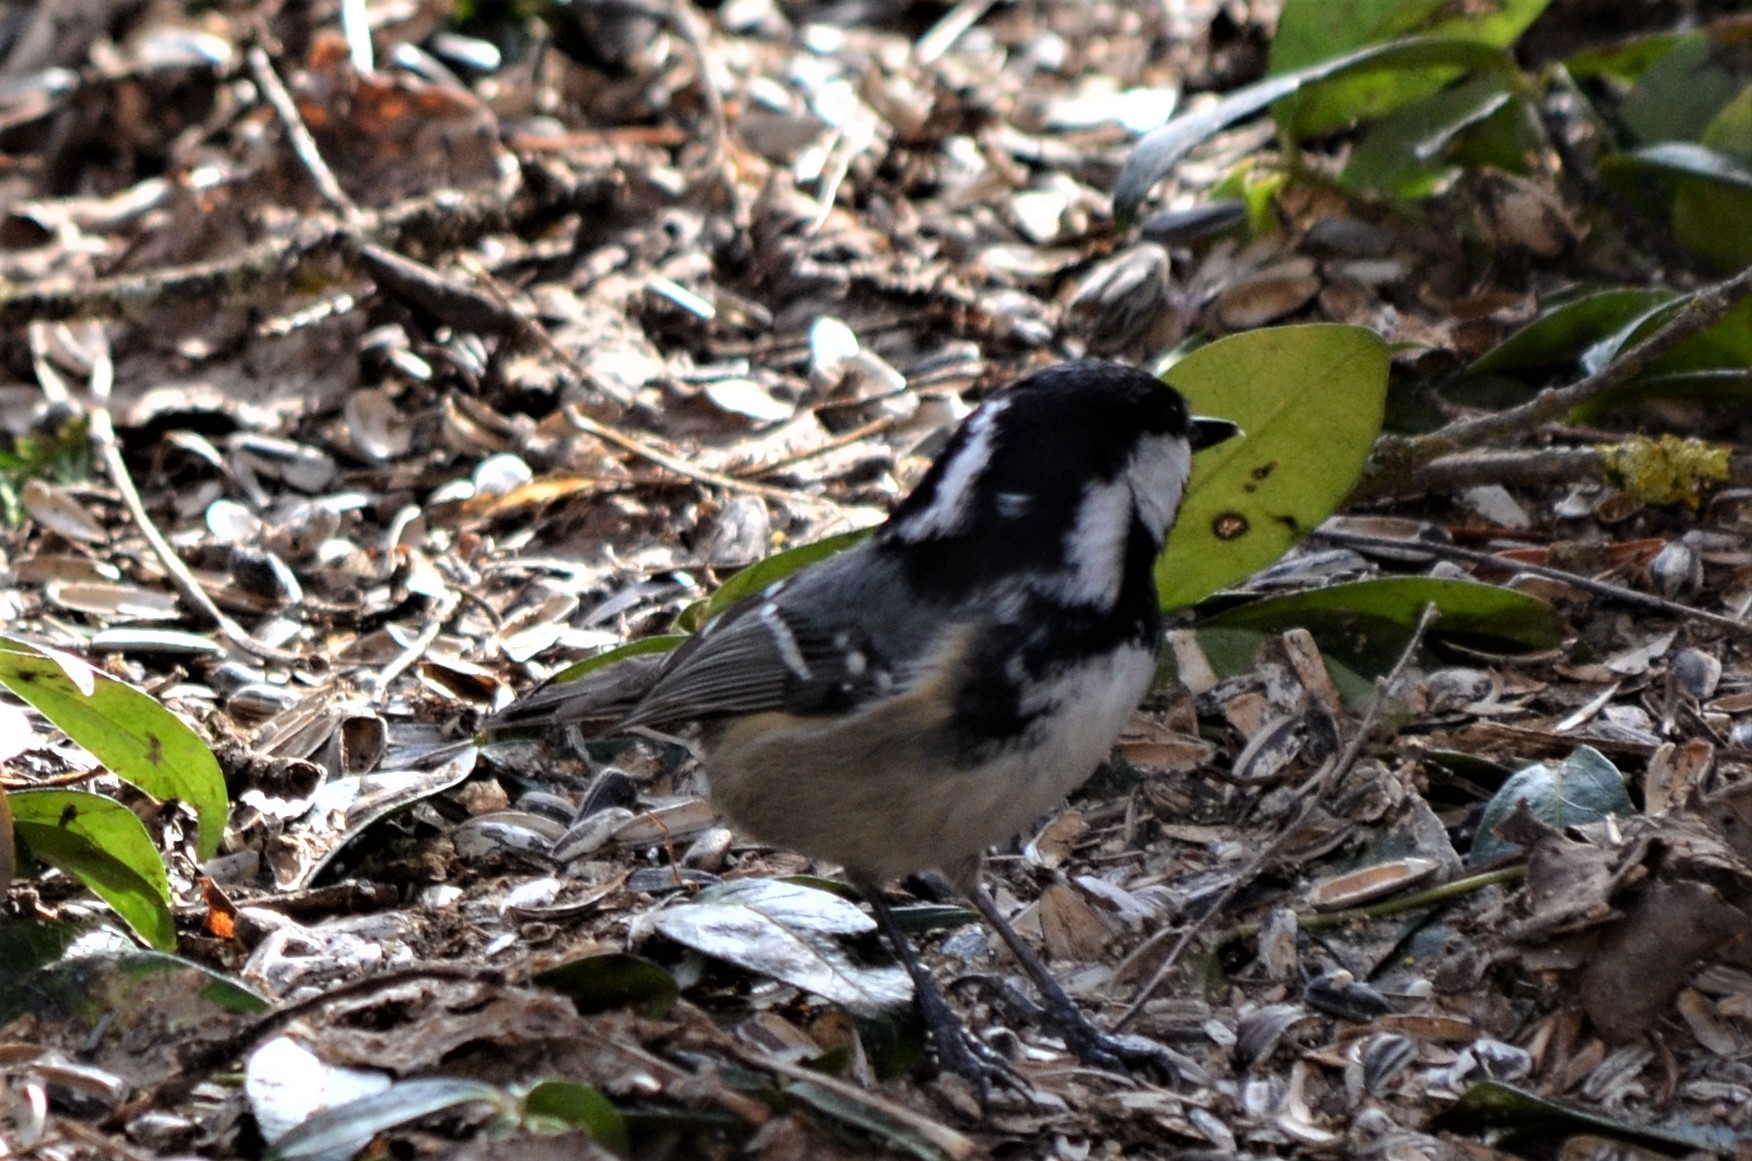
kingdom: Animalia
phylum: Chordata
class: Aves
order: Passeriformes
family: Paridae
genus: Periparus
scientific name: Periparus ater
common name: Coal tit
